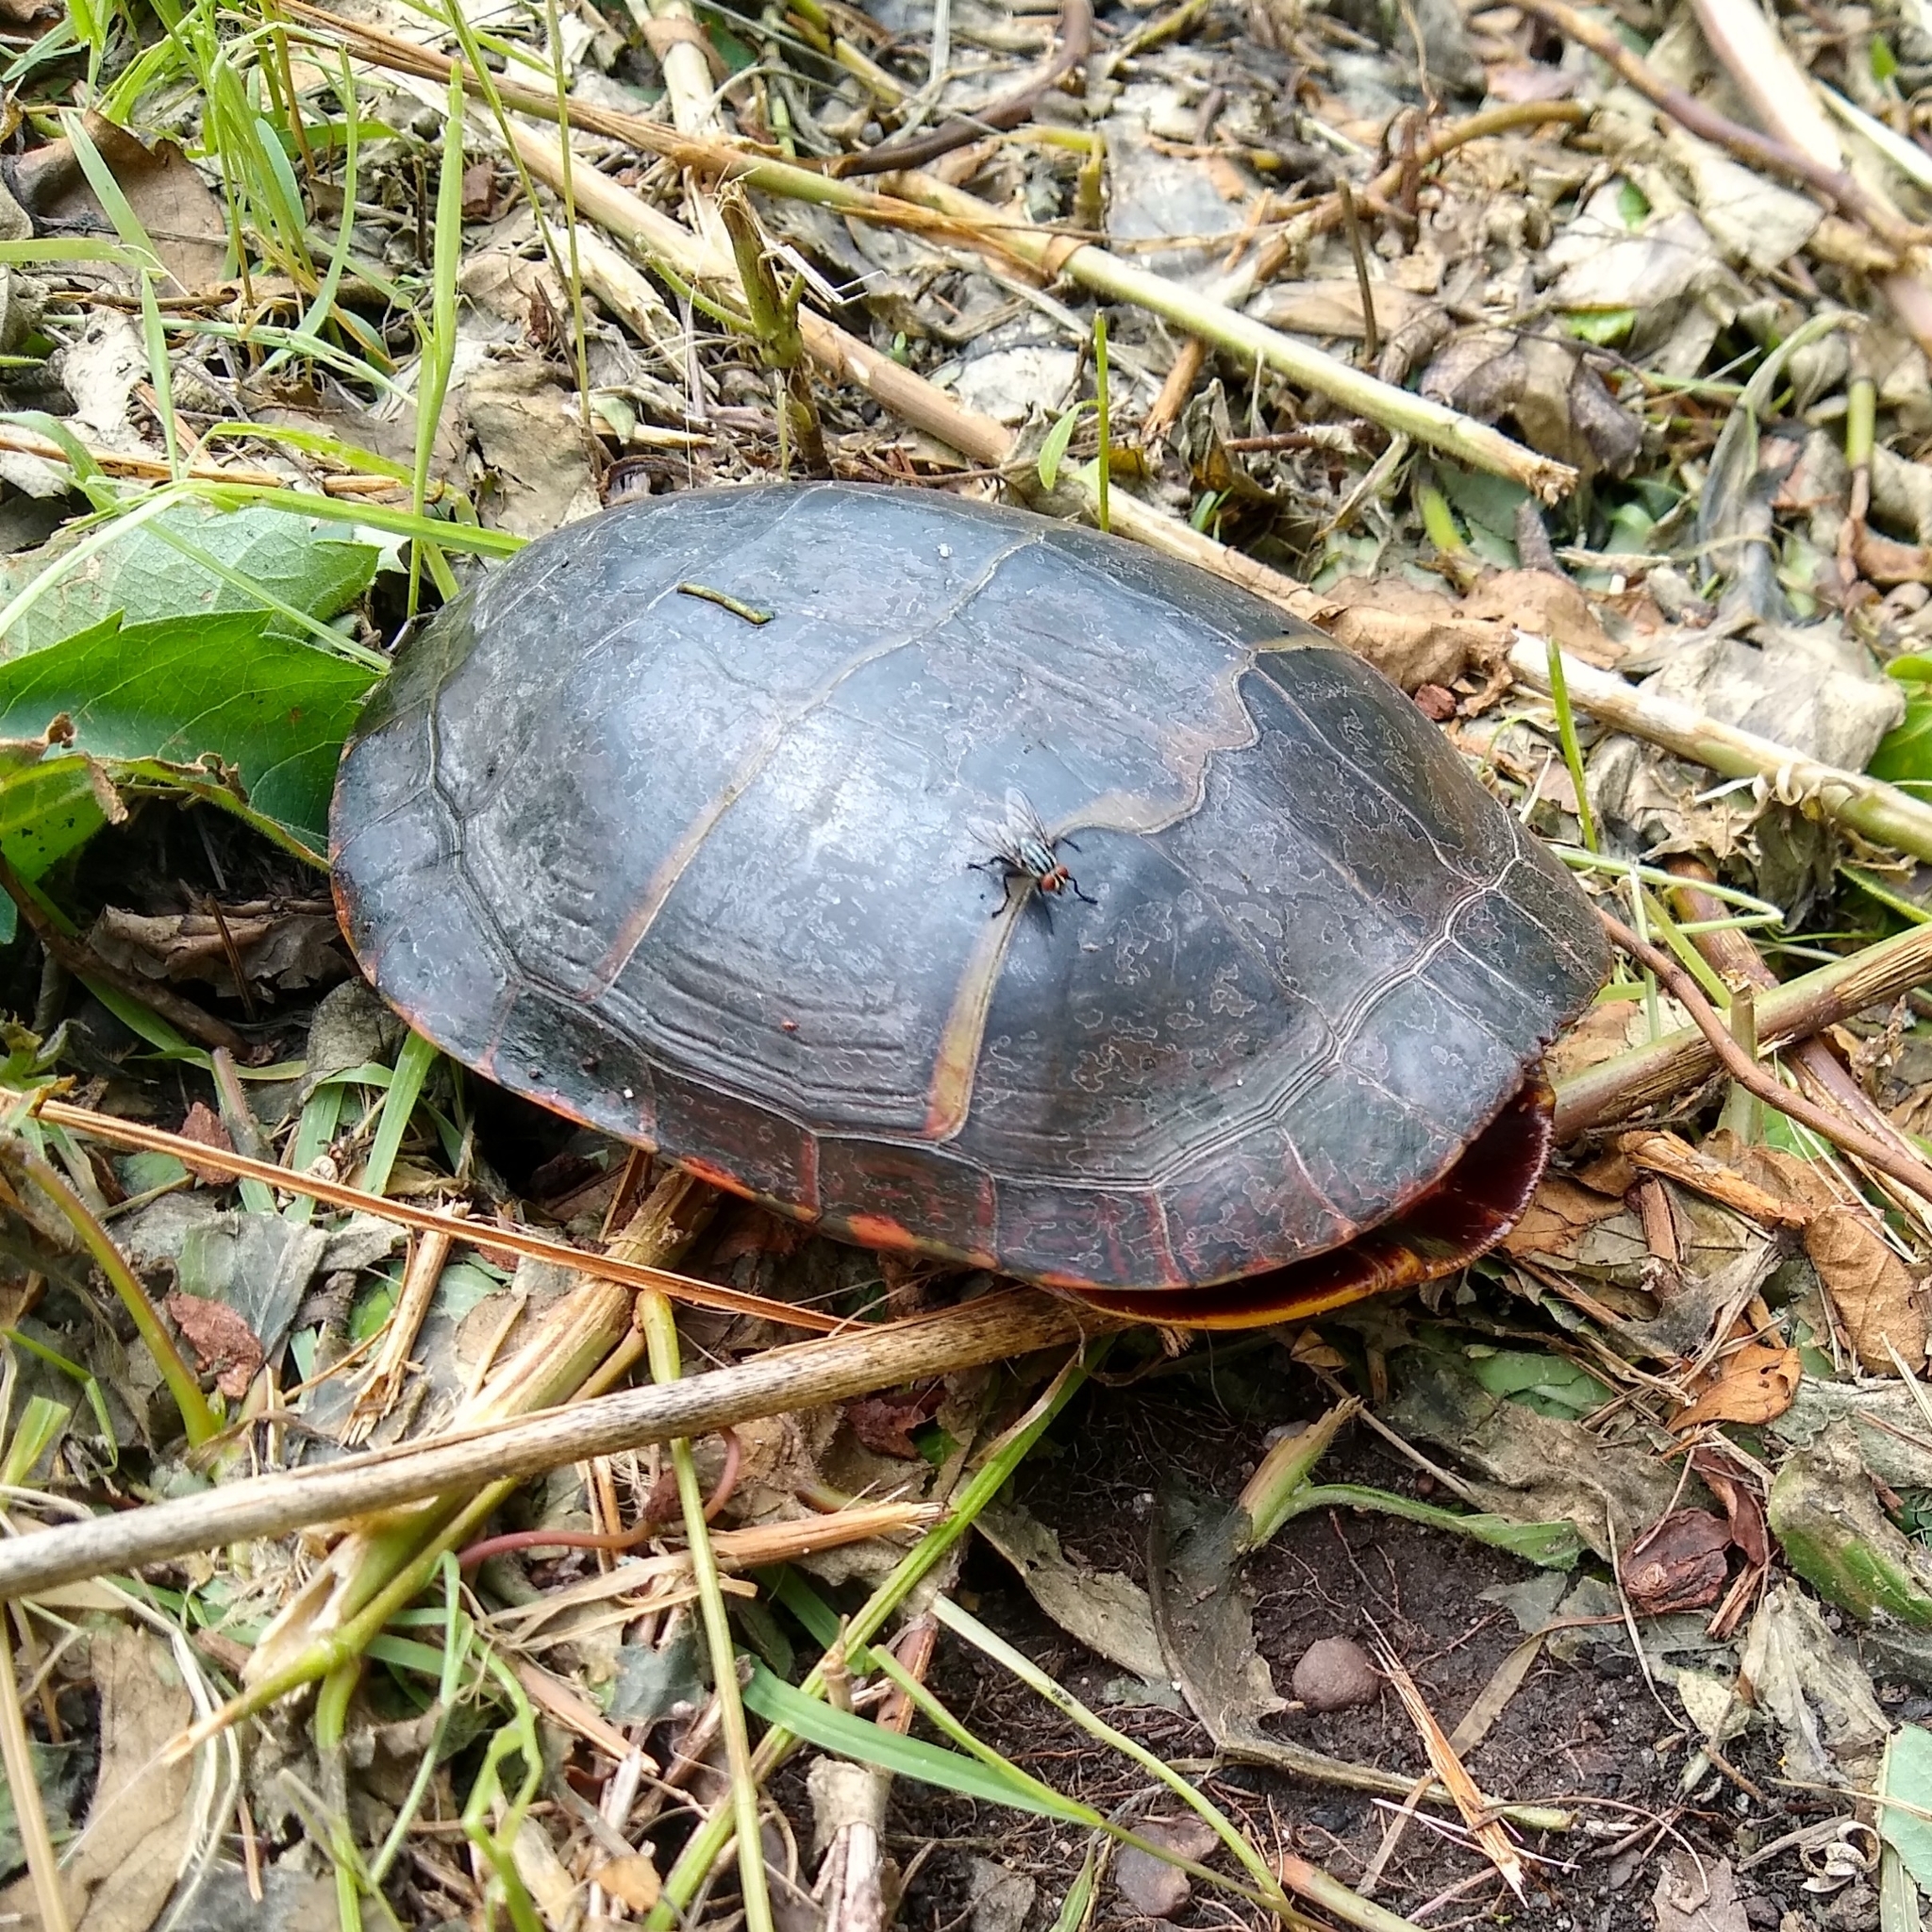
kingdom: Animalia
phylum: Chordata
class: Testudines
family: Emydidae
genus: Chrysemys
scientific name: Chrysemys picta
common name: Painted turtle
